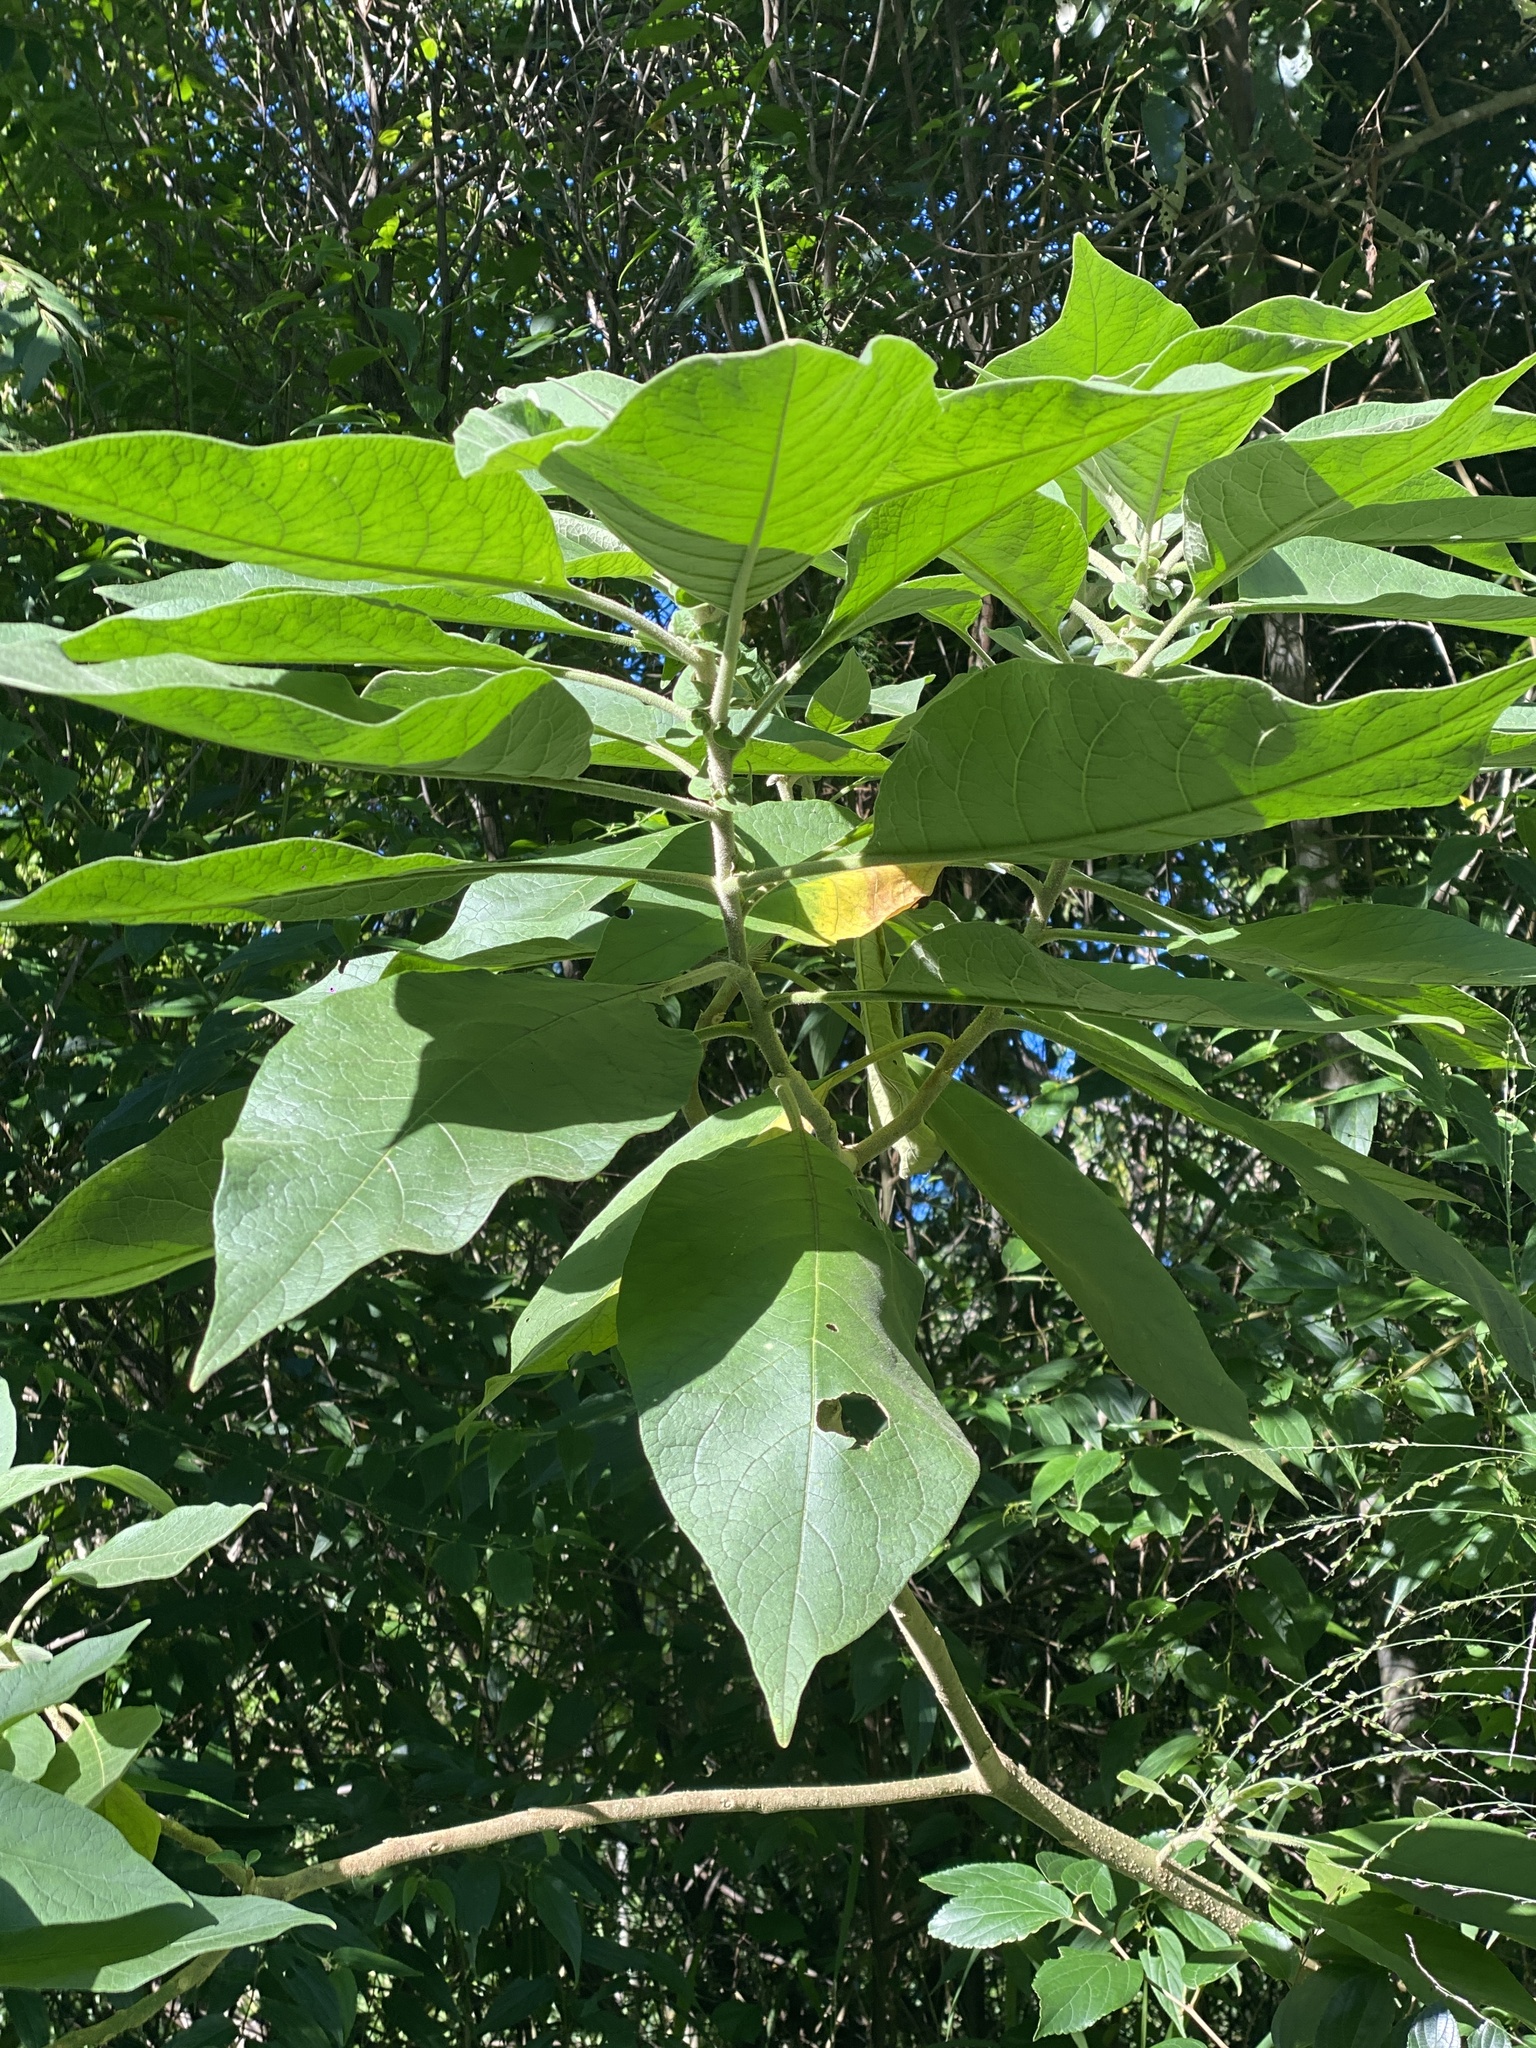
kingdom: Plantae
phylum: Tracheophyta
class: Magnoliopsida
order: Solanales
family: Solanaceae
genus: Solanum
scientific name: Solanum mauritianum
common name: Earleaf nightshade
